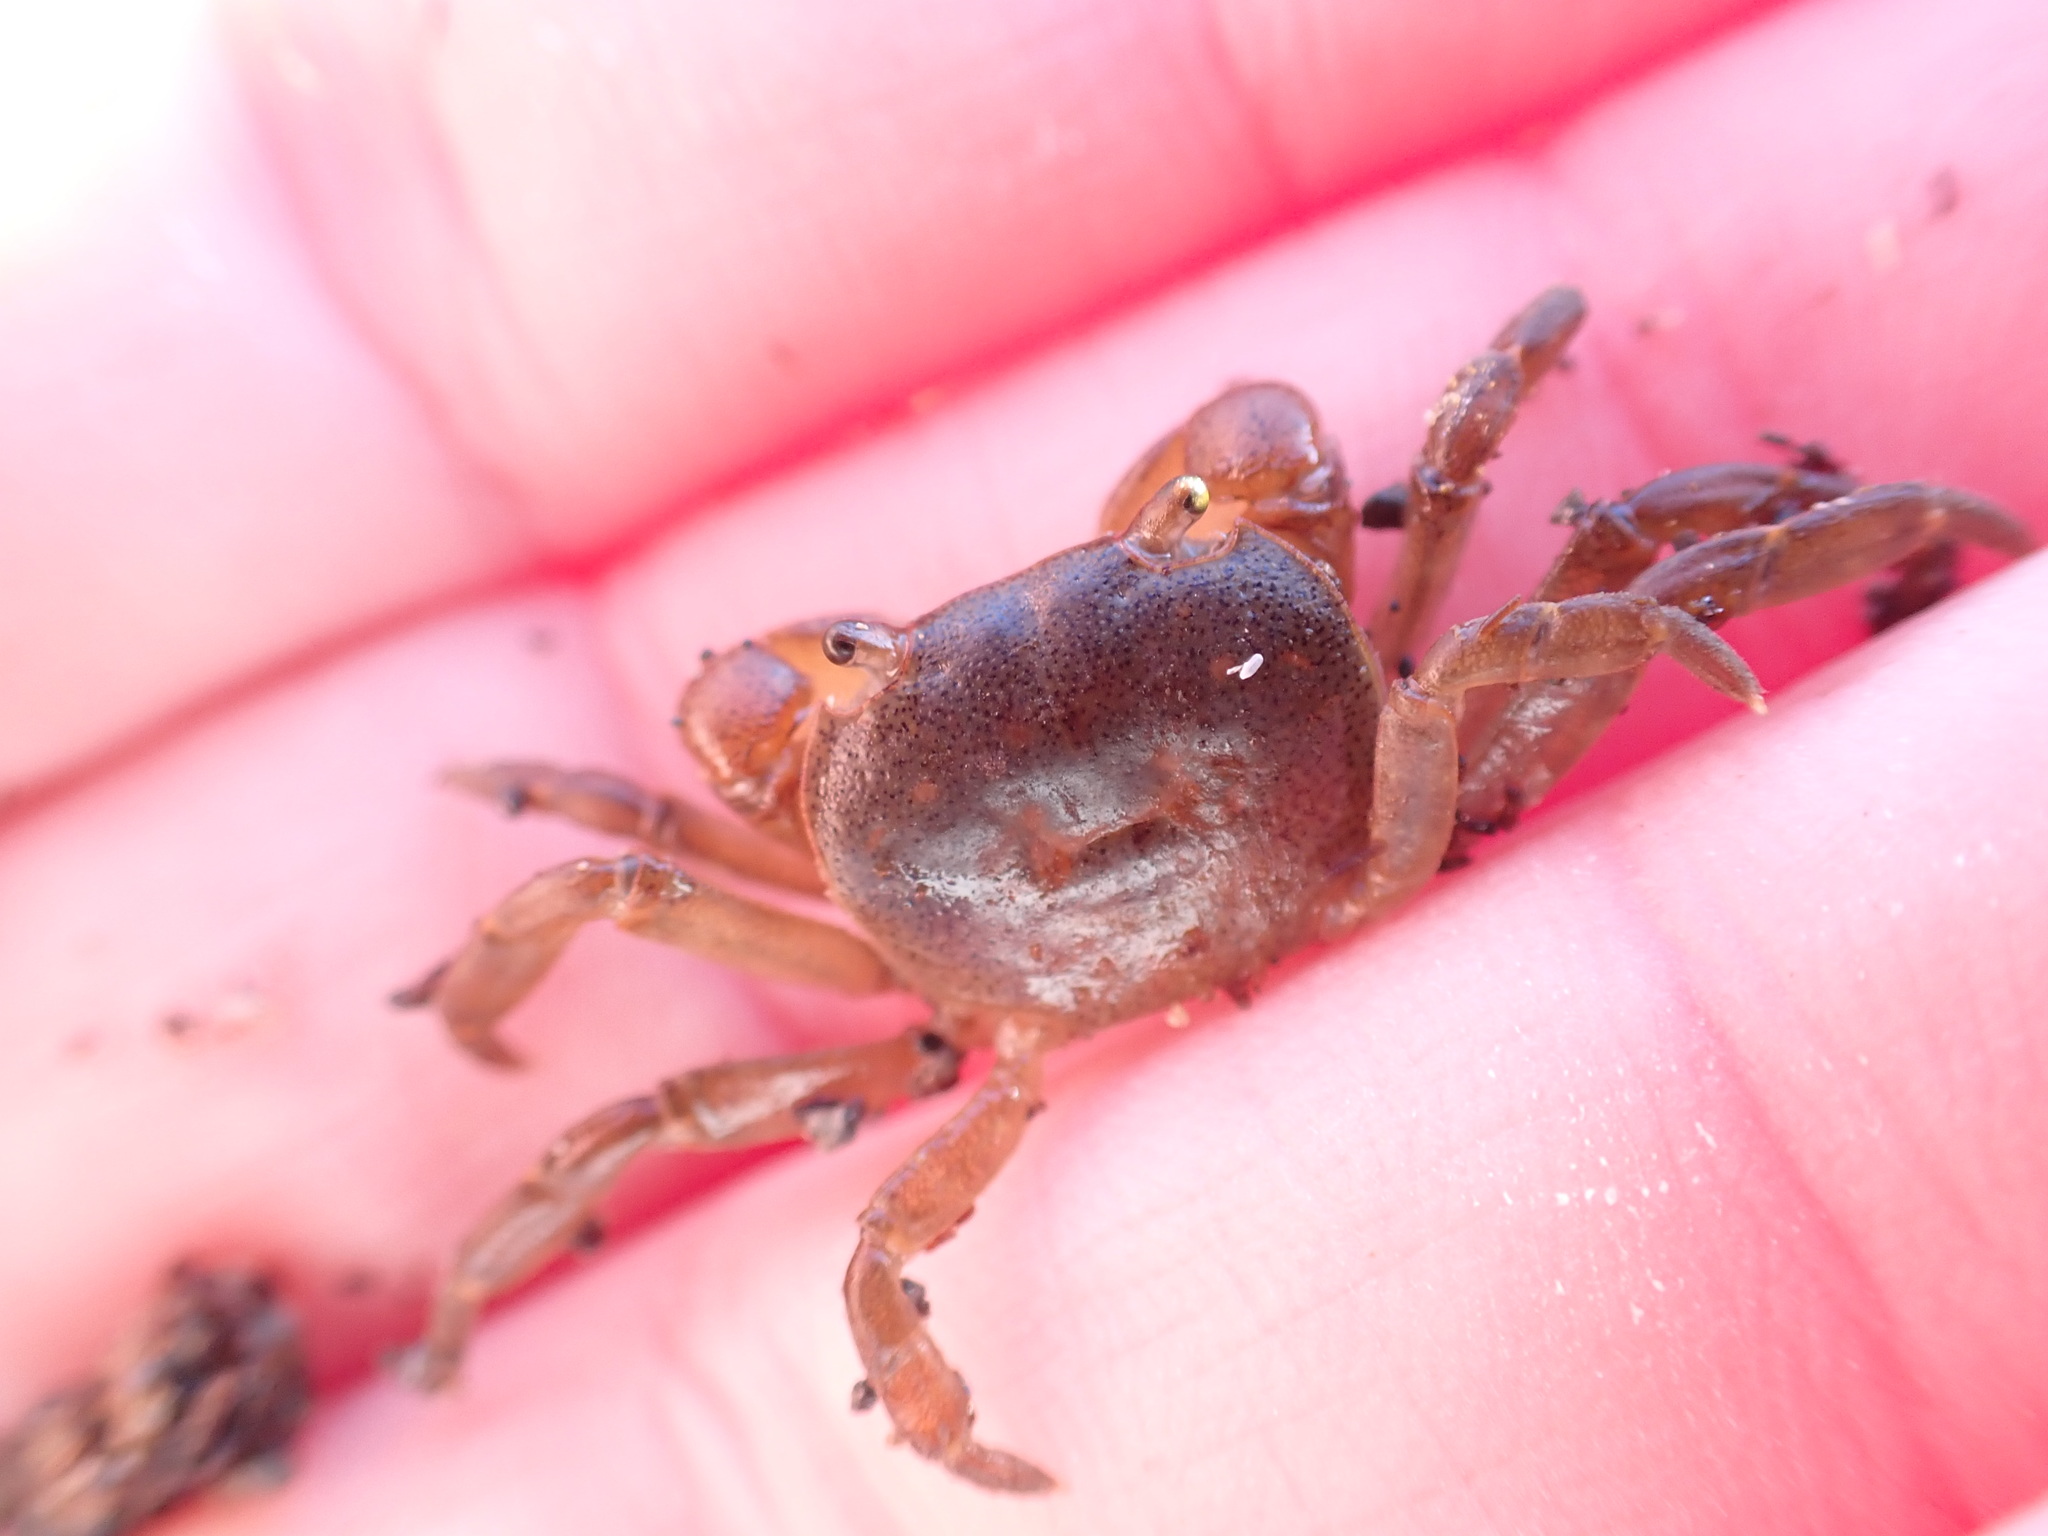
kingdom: Animalia
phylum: Arthropoda
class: Malacostraca
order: Decapoda
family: Varunidae
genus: Cyclograpsus
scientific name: Cyclograpsus lavauxi
